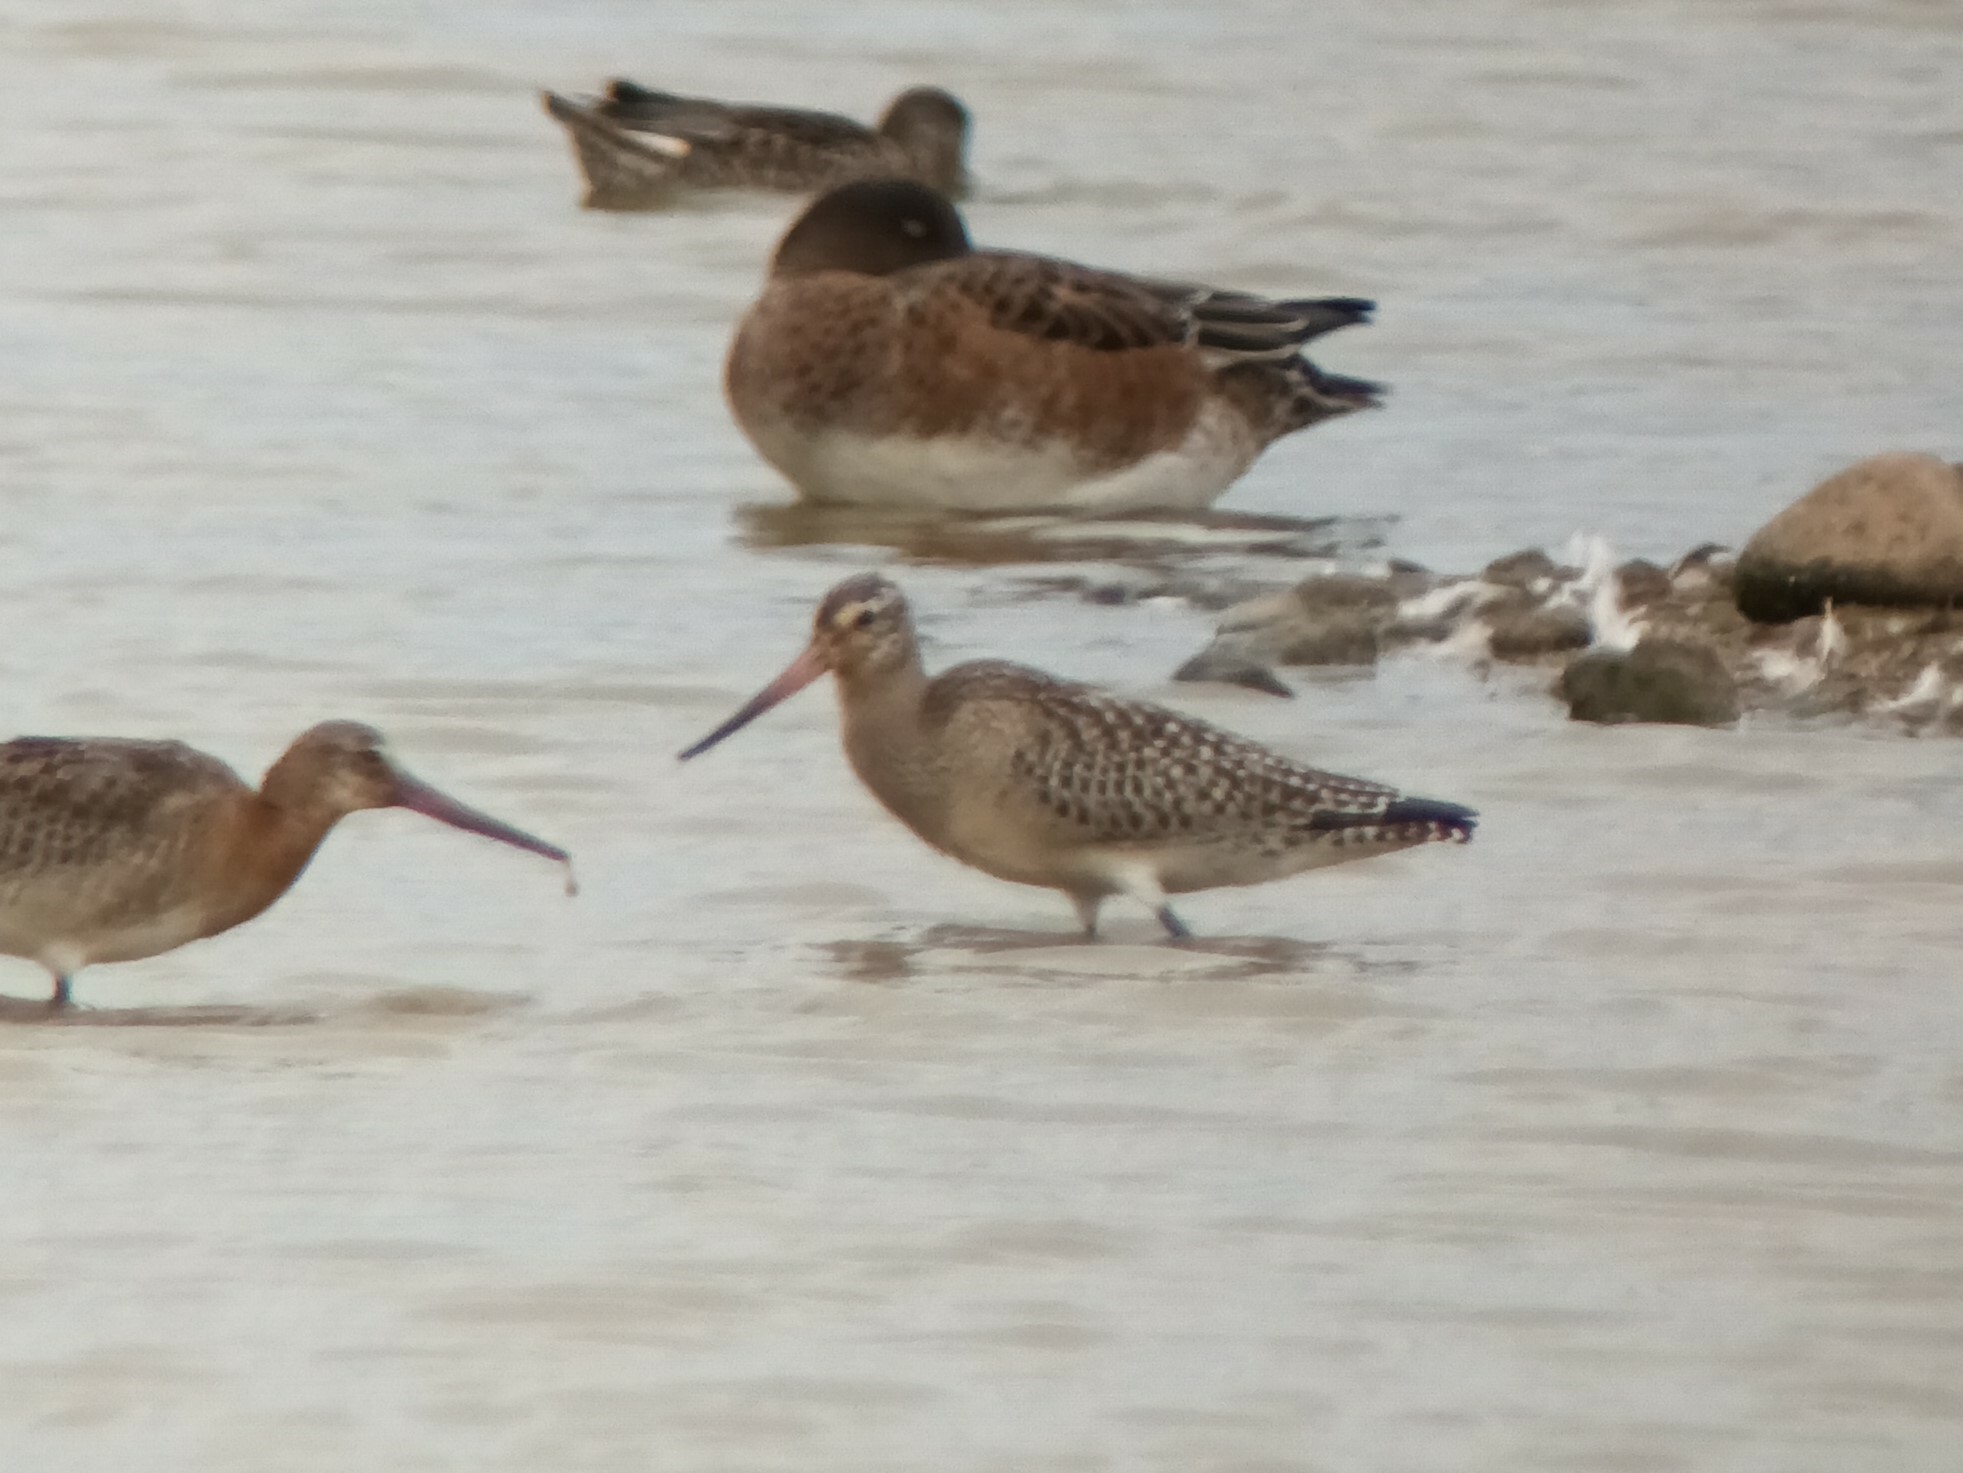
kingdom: Animalia
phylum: Chordata
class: Aves
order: Charadriiformes
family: Scolopacidae
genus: Limosa
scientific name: Limosa lapponica
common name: Bar-tailed godwit
